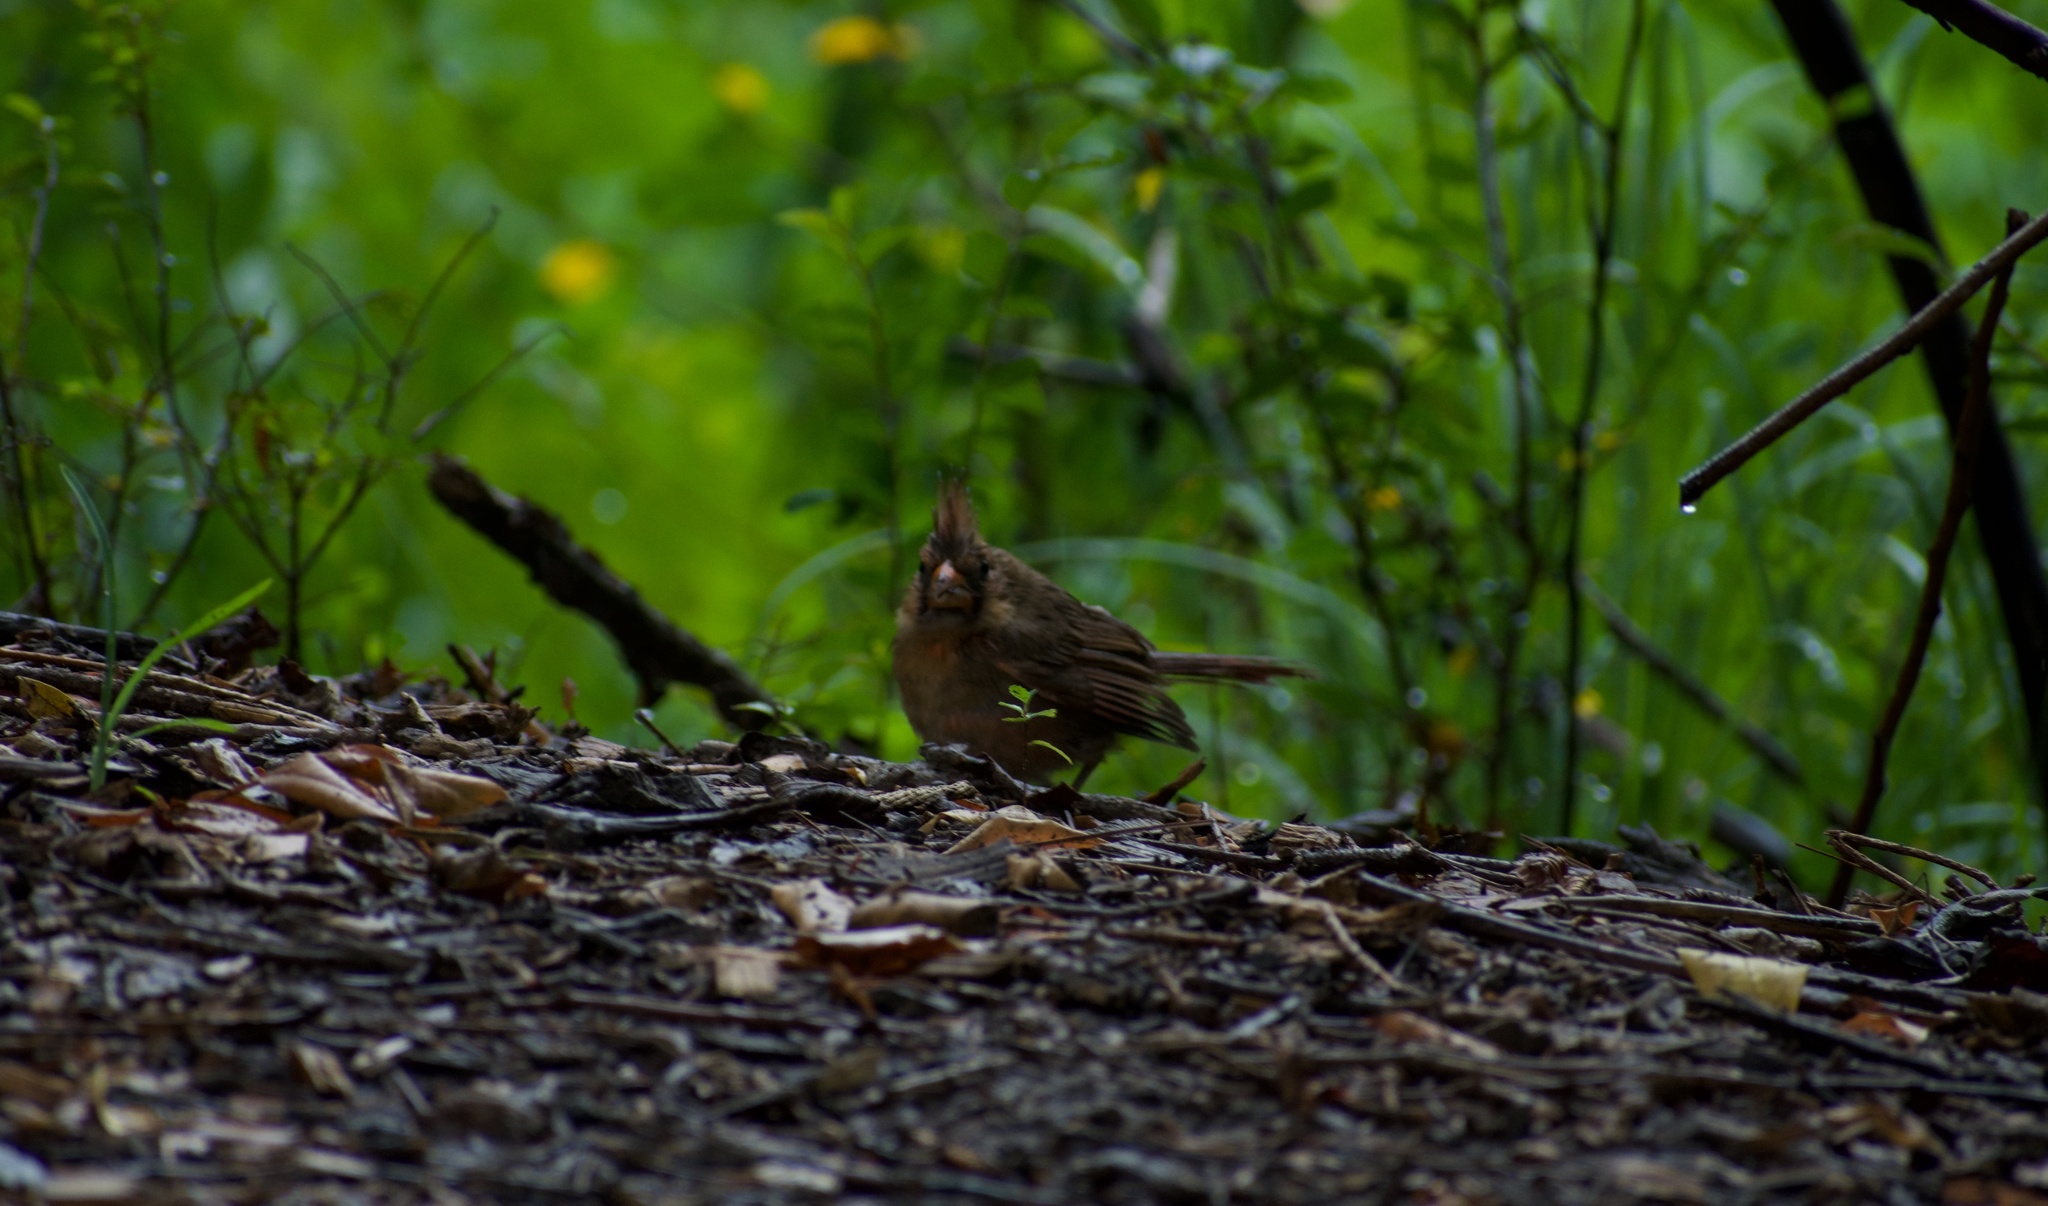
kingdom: Animalia
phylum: Chordata
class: Aves
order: Passeriformes
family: Cardinalidae
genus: Cardinalis
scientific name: Cardinalis cardinalis
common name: Northern cardinal
